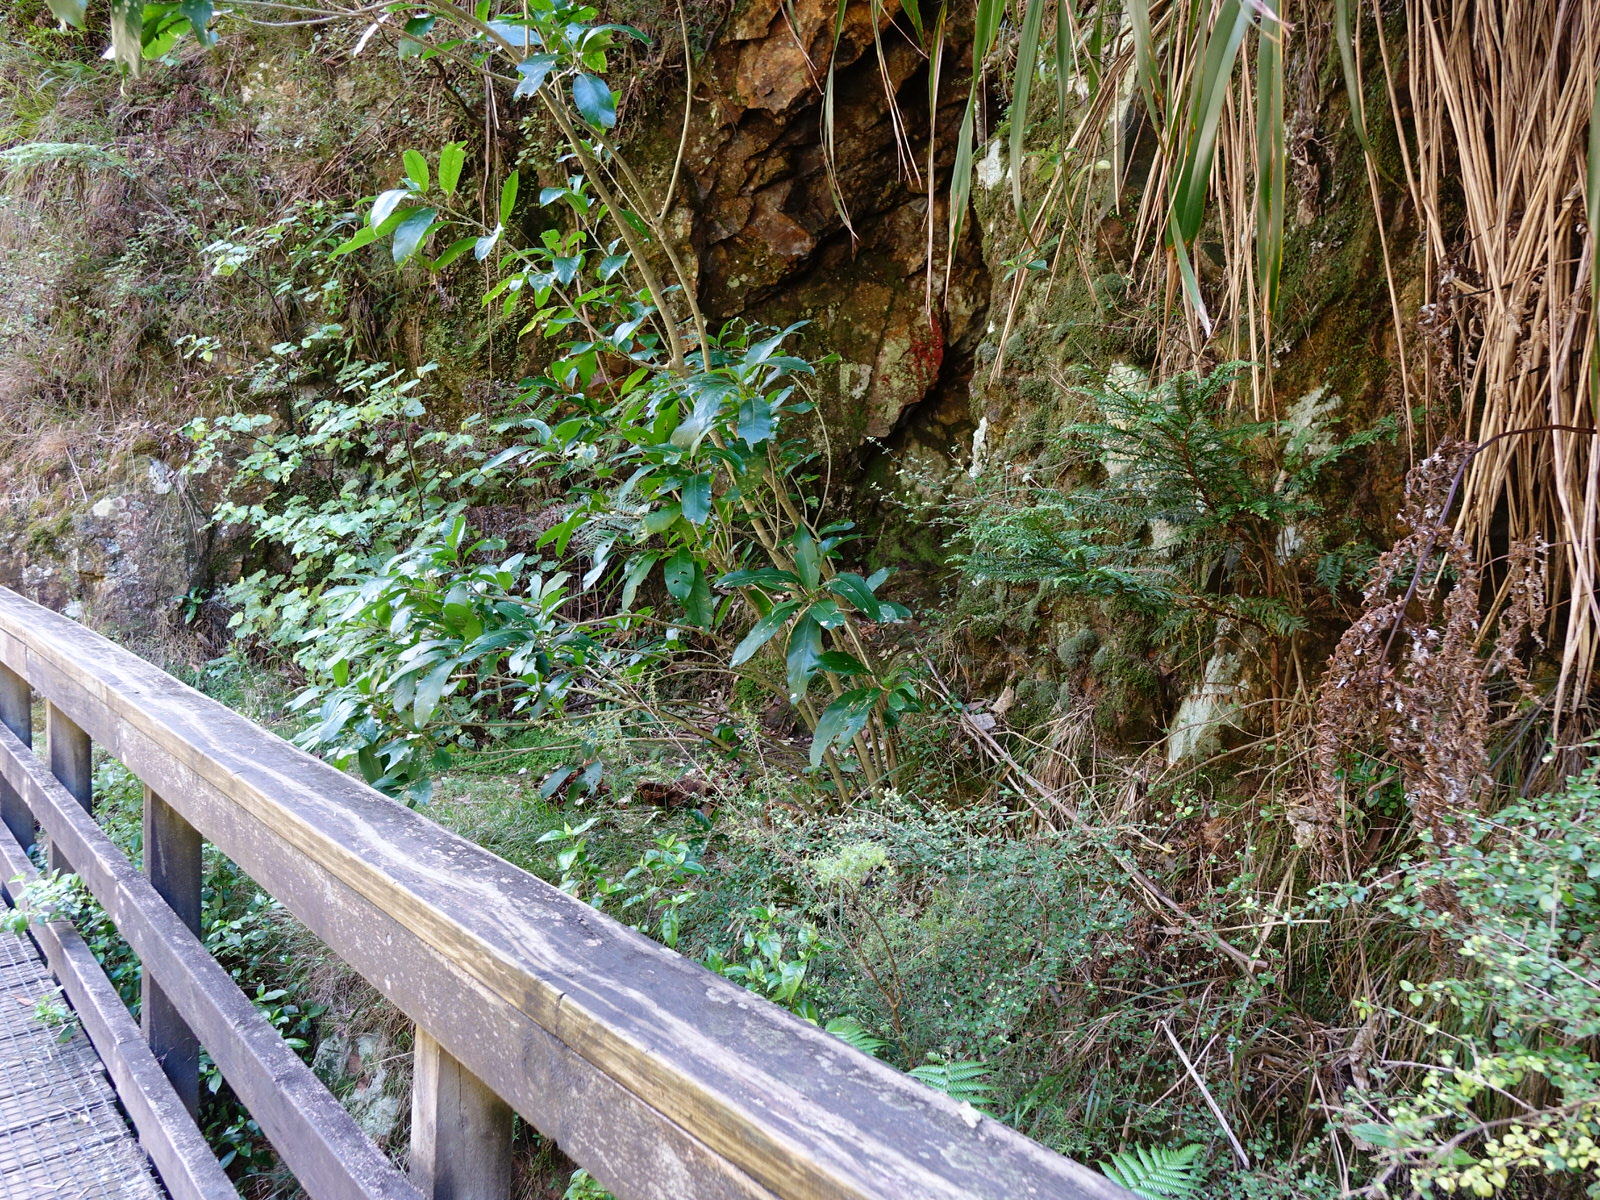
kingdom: Plantae
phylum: Tracheophyta
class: Pinopsida
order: Pinales
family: Cupressaceae
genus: Libocedrus
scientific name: Libocedrus plumosa
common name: New zealand cedar
